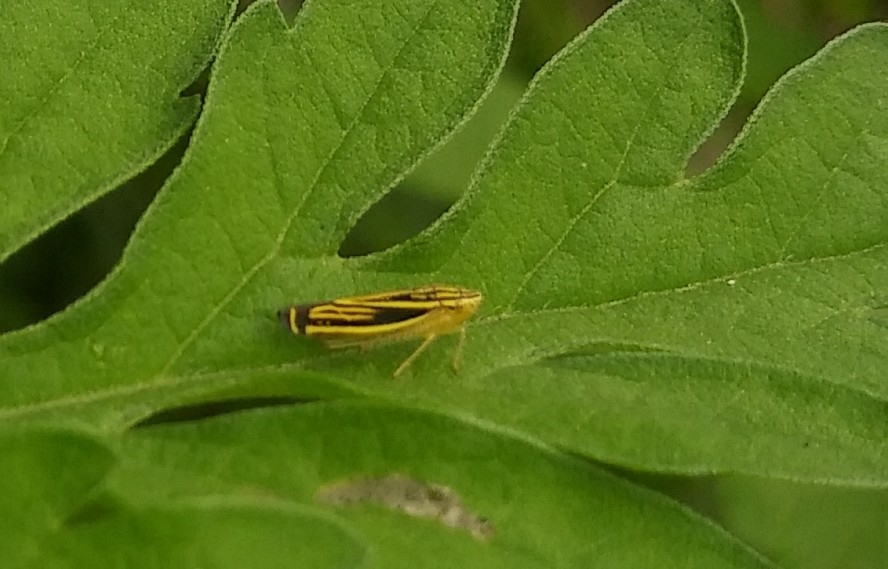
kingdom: Animalia
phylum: Arthropoda
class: Insecta
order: Hemiptera
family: Cicadellidae
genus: Sibovia
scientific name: Sibovia occatoria
